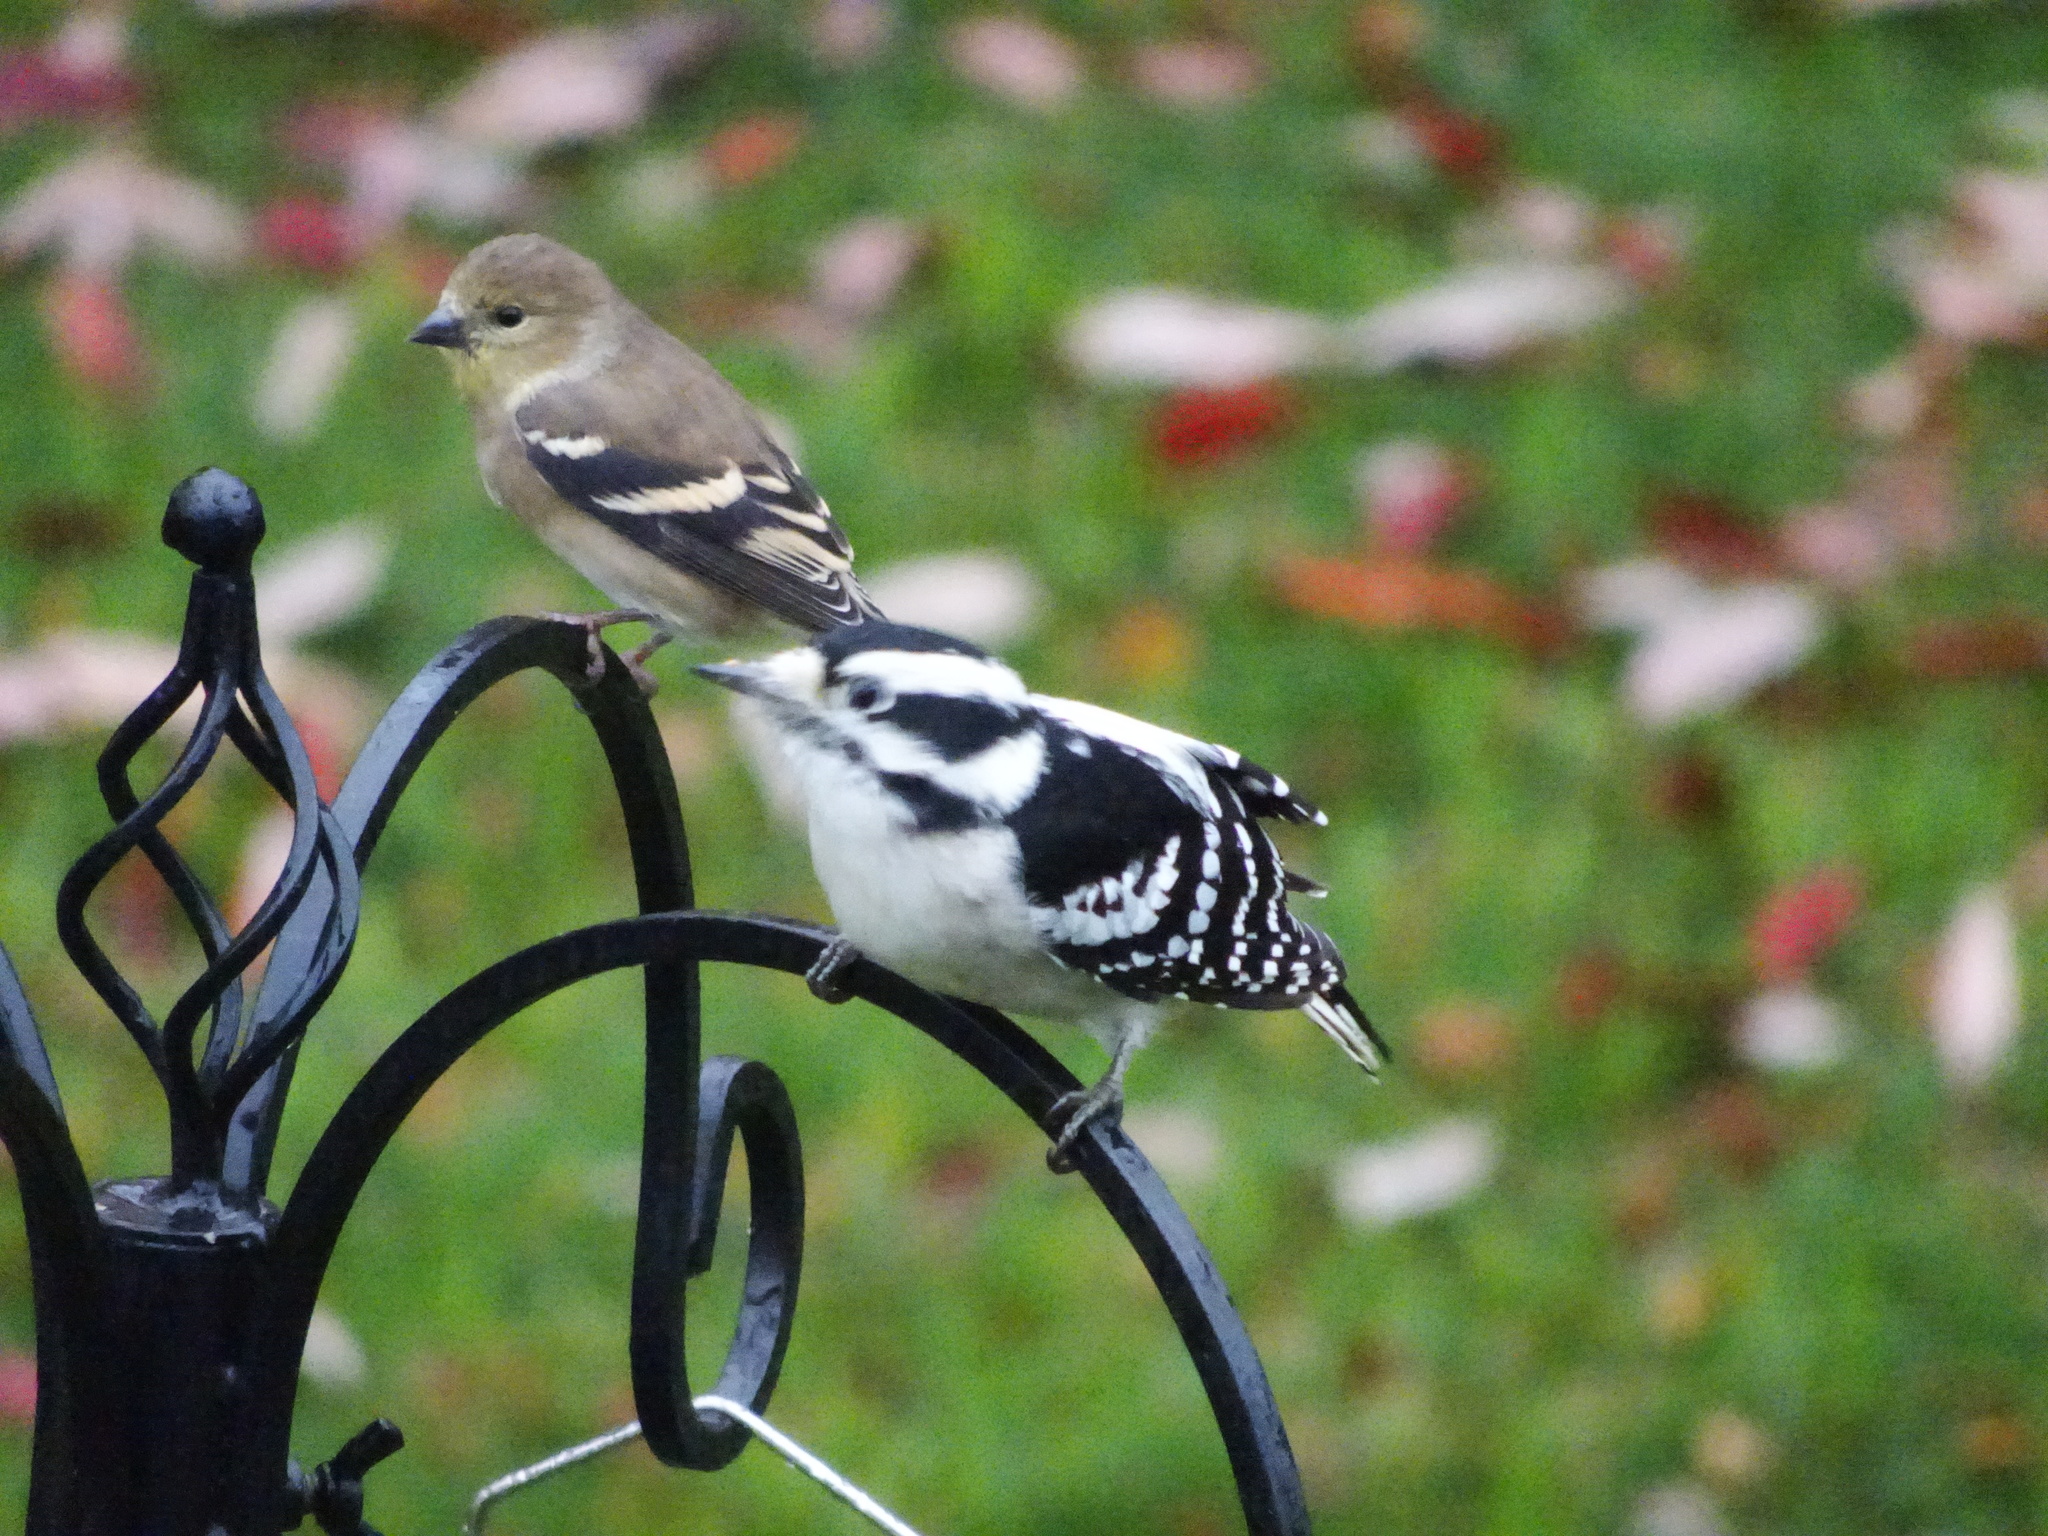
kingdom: Animalia
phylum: Chordata
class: Aves
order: Piciformes
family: Picidae
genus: Dryobates
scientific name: Dryobates pubescens
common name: Downy woodpecker
